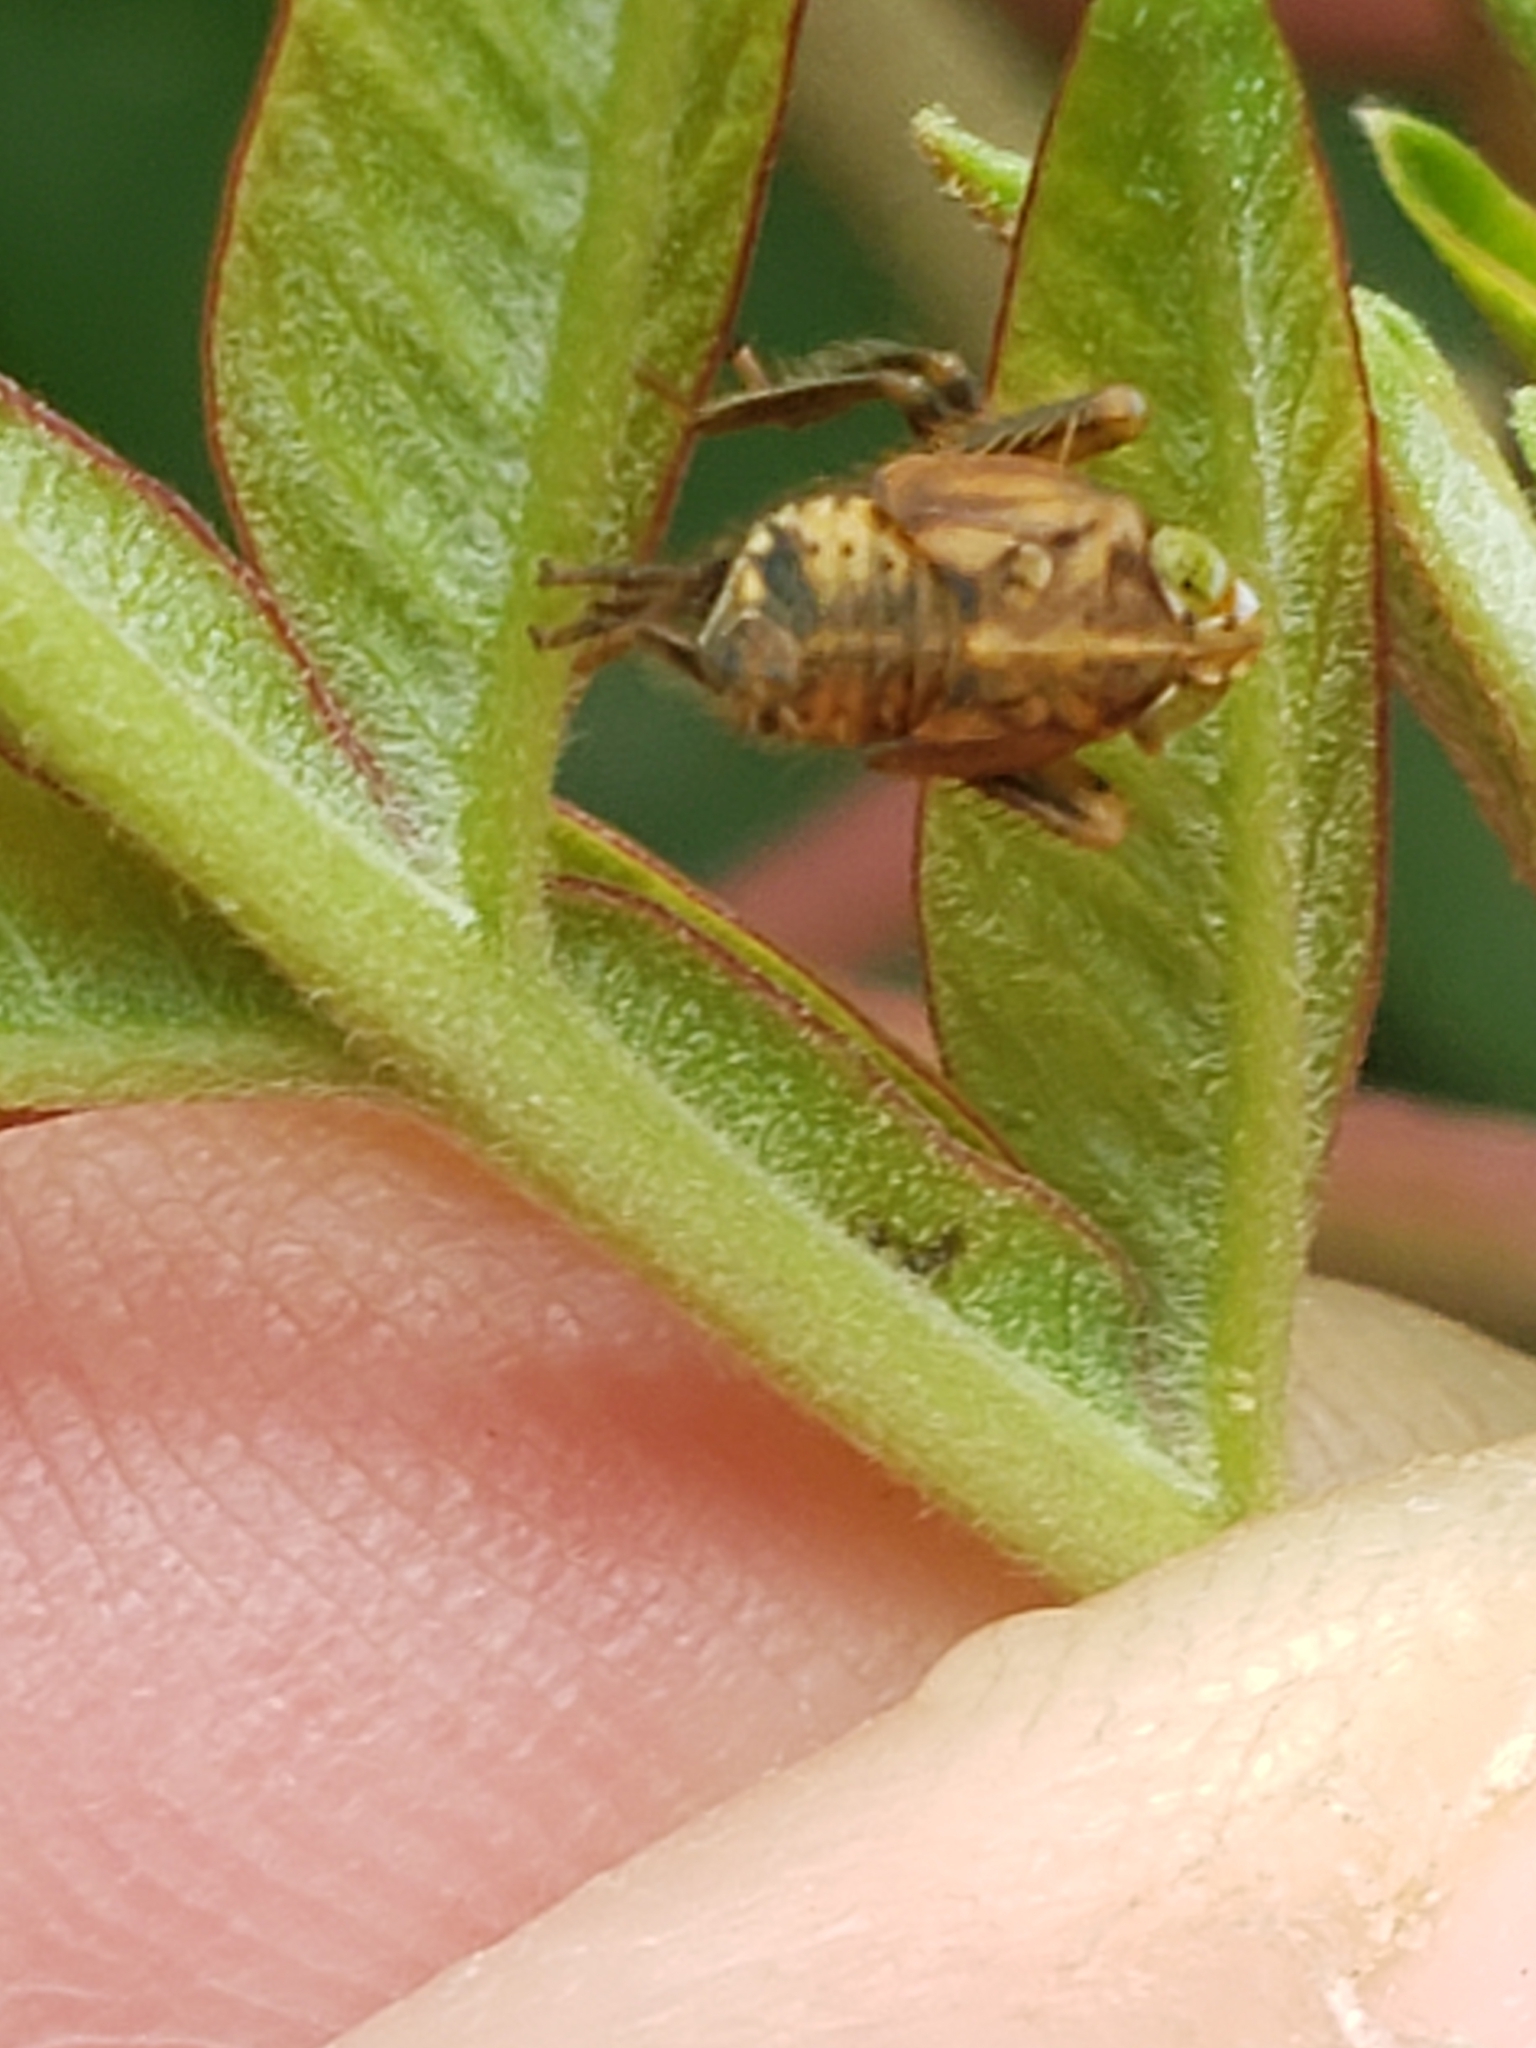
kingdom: Animalia
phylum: Arthropoda
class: Insecta
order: Hemiptera
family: Cicadellidae
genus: Jikradia
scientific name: Jikradia olitoria
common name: Coppery leafhopper
